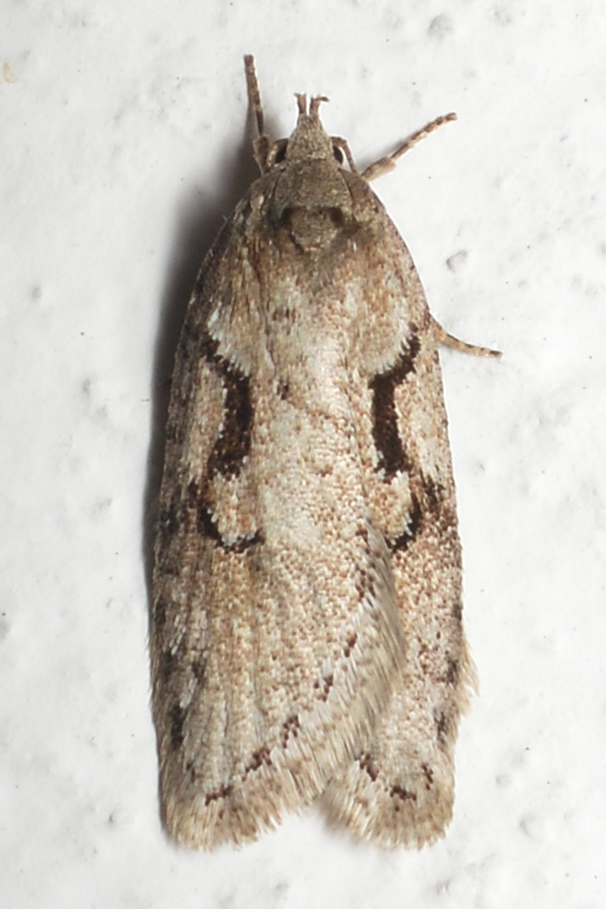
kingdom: Animalia
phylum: Arthropoda
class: Insecta
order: Lepidoptera
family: Depressariidae
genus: Semioscopis
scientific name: Semioscopis steinkellneriana
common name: Dawn flat-body
